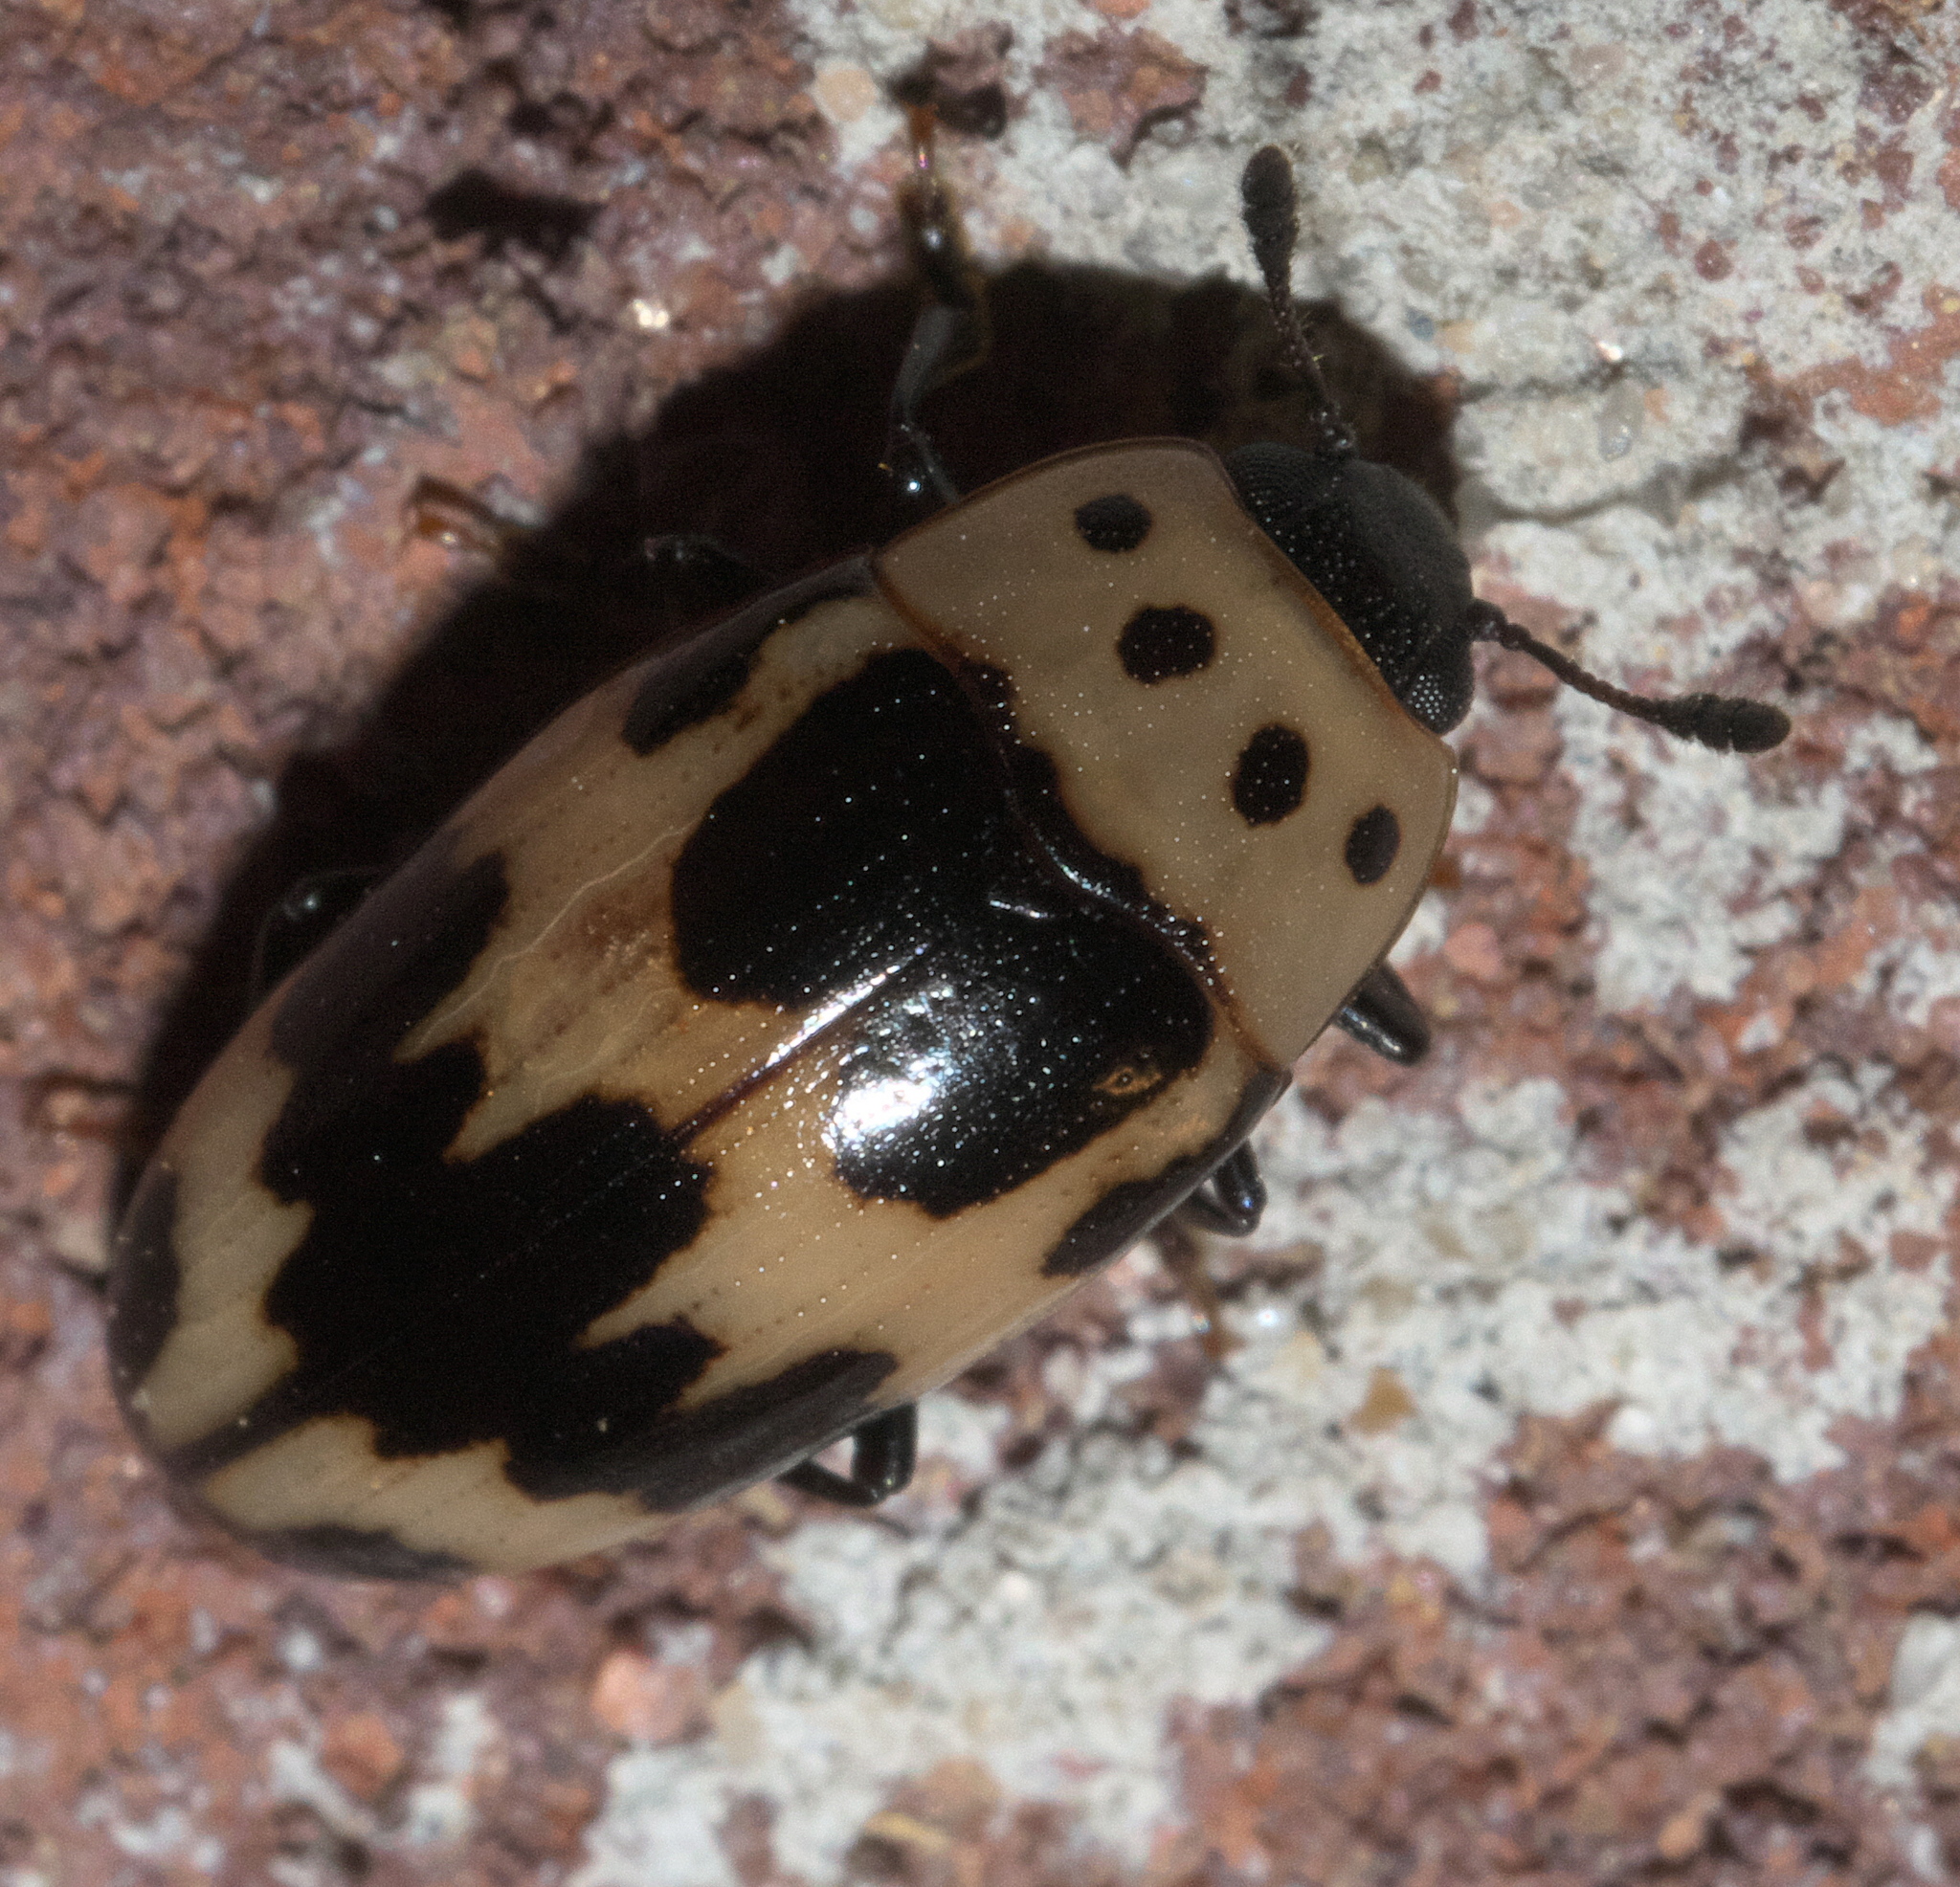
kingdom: Animalia
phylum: Arthropoda
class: Insecta
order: Coleoptera
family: Erotylidae
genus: Ischyrus
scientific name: Ischyrus quadripunctatus
